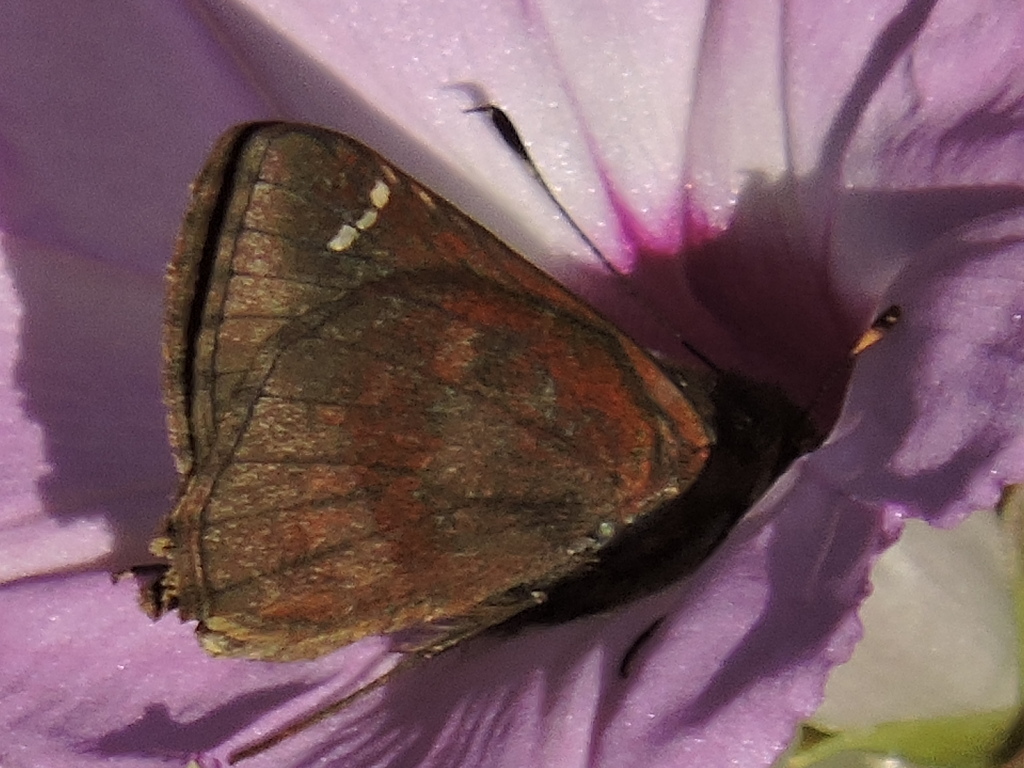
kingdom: Animalia
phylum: Arthropoda
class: Insecta
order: Lepidoptera
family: Hesperiidae
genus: Lerema
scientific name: Lerema accius
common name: Clouded skipper
